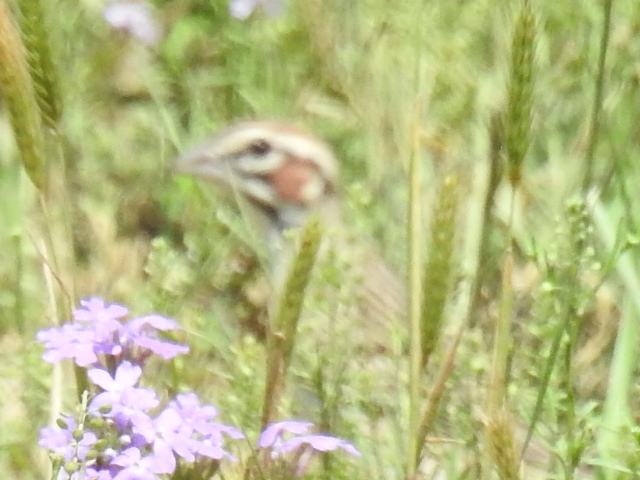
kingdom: Animalia
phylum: Chordata
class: Aves
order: Passeriformes
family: Passerellidae
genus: Chondestes
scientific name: Chondestes grammacus
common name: Lark sparrow
